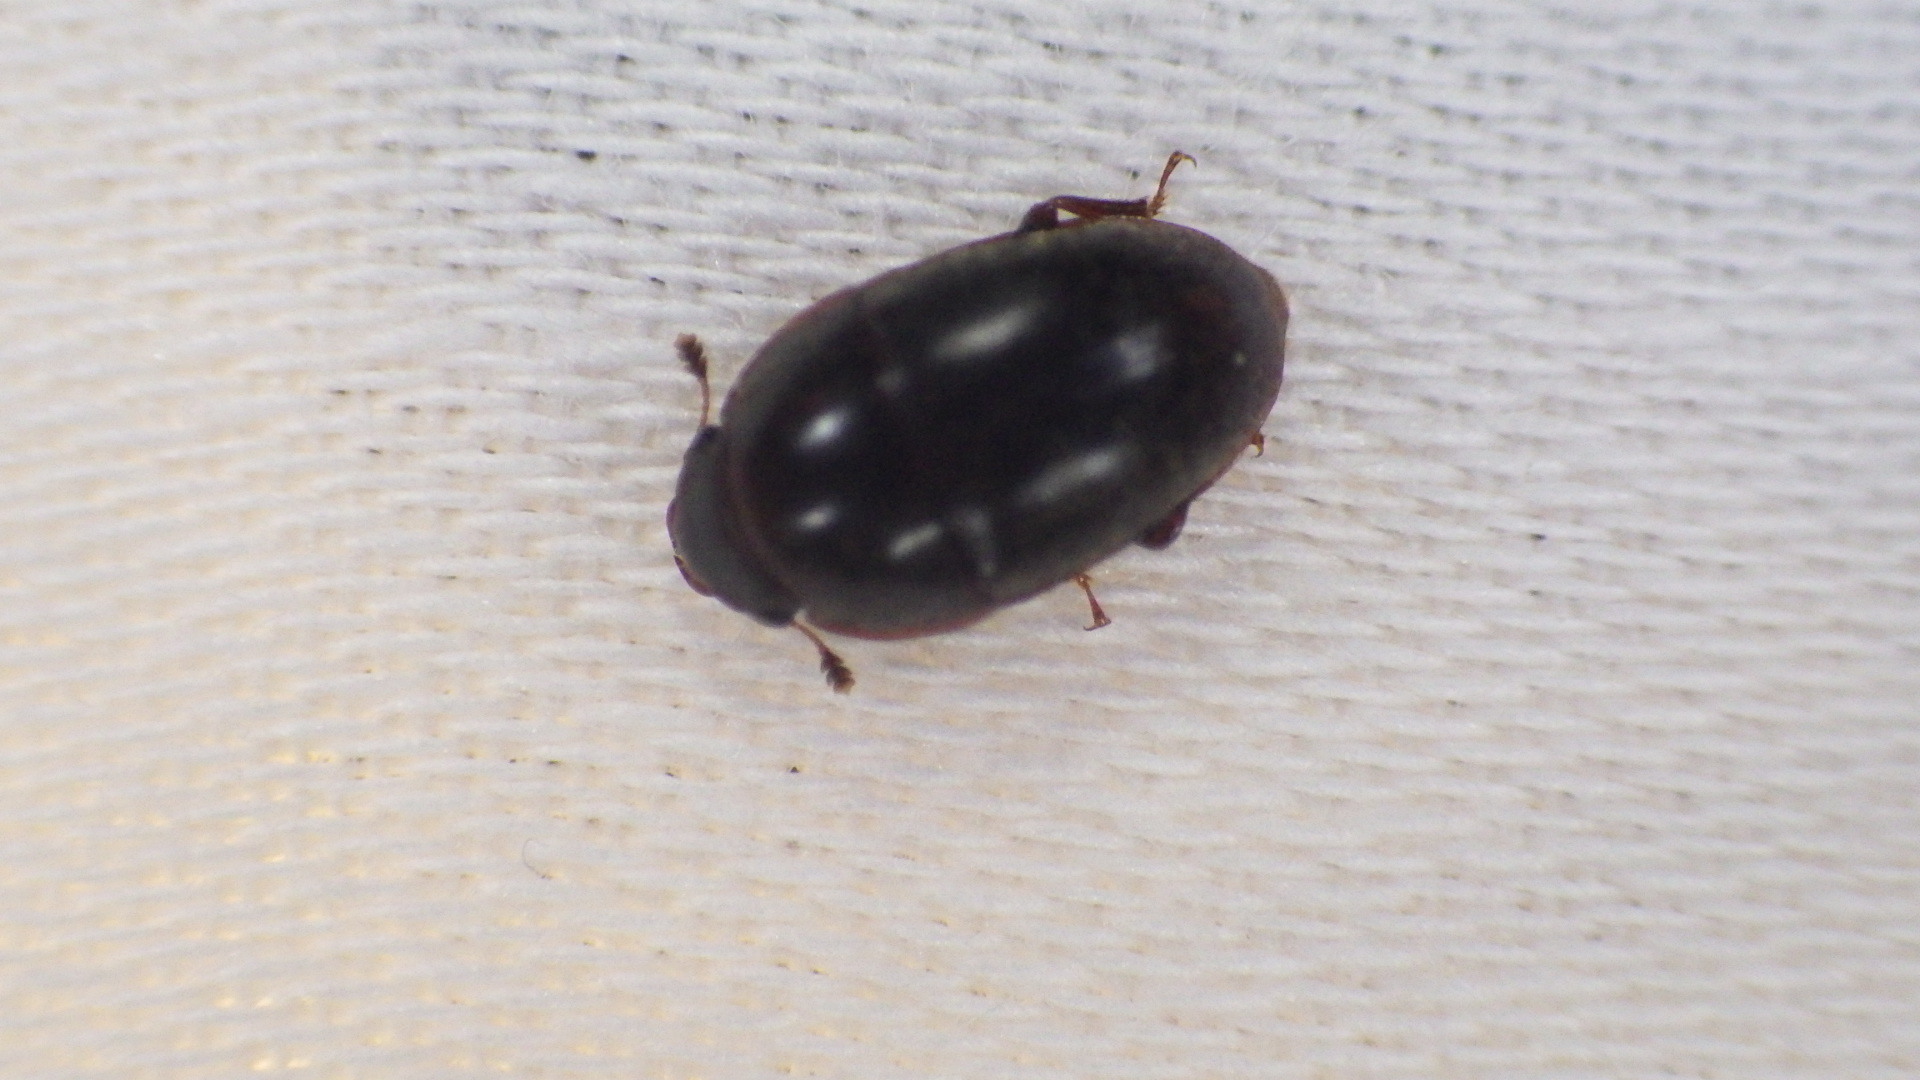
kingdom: Animalia
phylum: Arthropoda
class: Insecta
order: Coleoptera
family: Nitidulidae
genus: Cryptarcha
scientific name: Cryptarcha ampla
